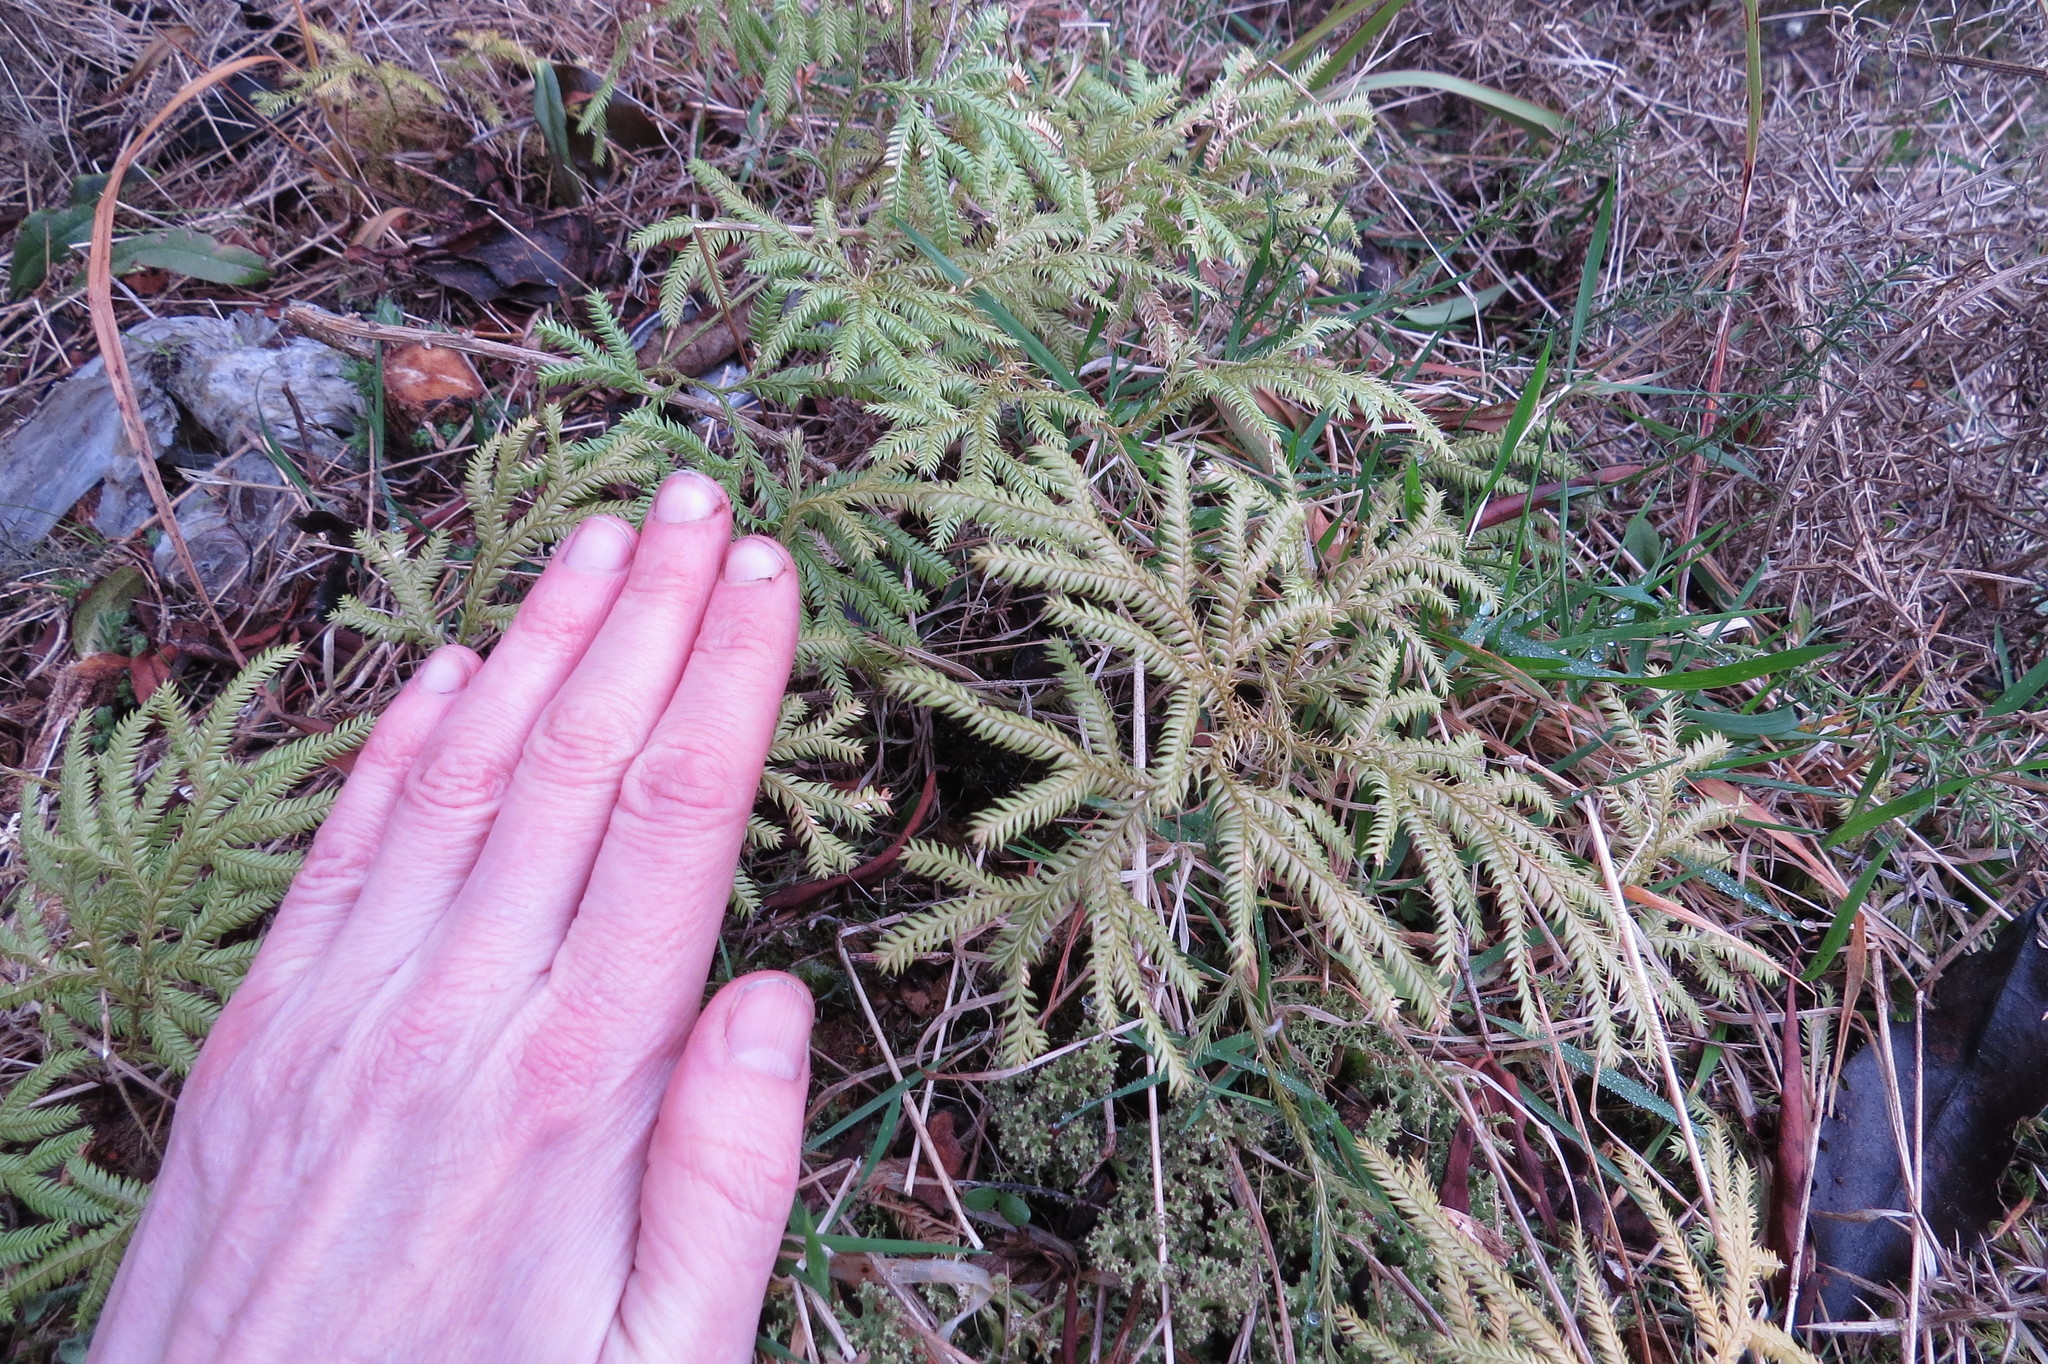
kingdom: Plantae
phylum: Tracheophyta
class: Lycopodiopsida
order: Lycopodiales
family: Lycopodiaceae
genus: Lycopodium
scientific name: Lycopodium volubile
